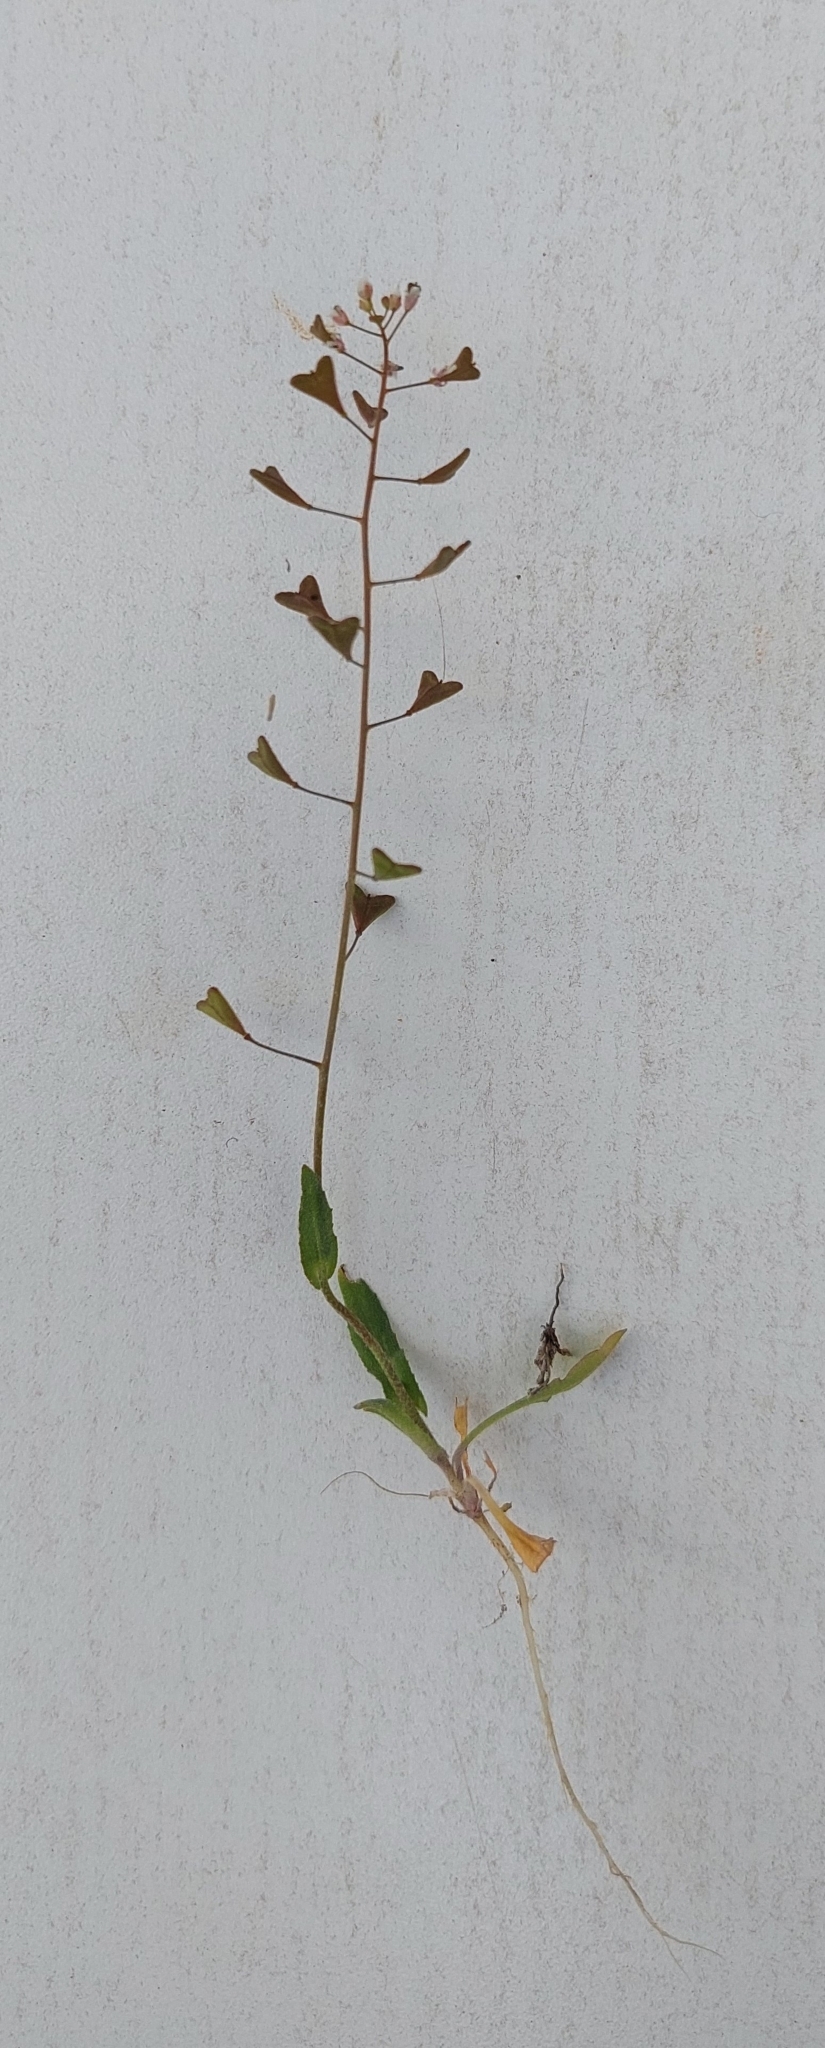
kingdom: Plantae
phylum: Tracheophyta
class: Magnoliopsida
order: Brassicales
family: Brassicaceae
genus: Capsella
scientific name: Capsella bursa-pastoris
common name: Shepherd's purse
